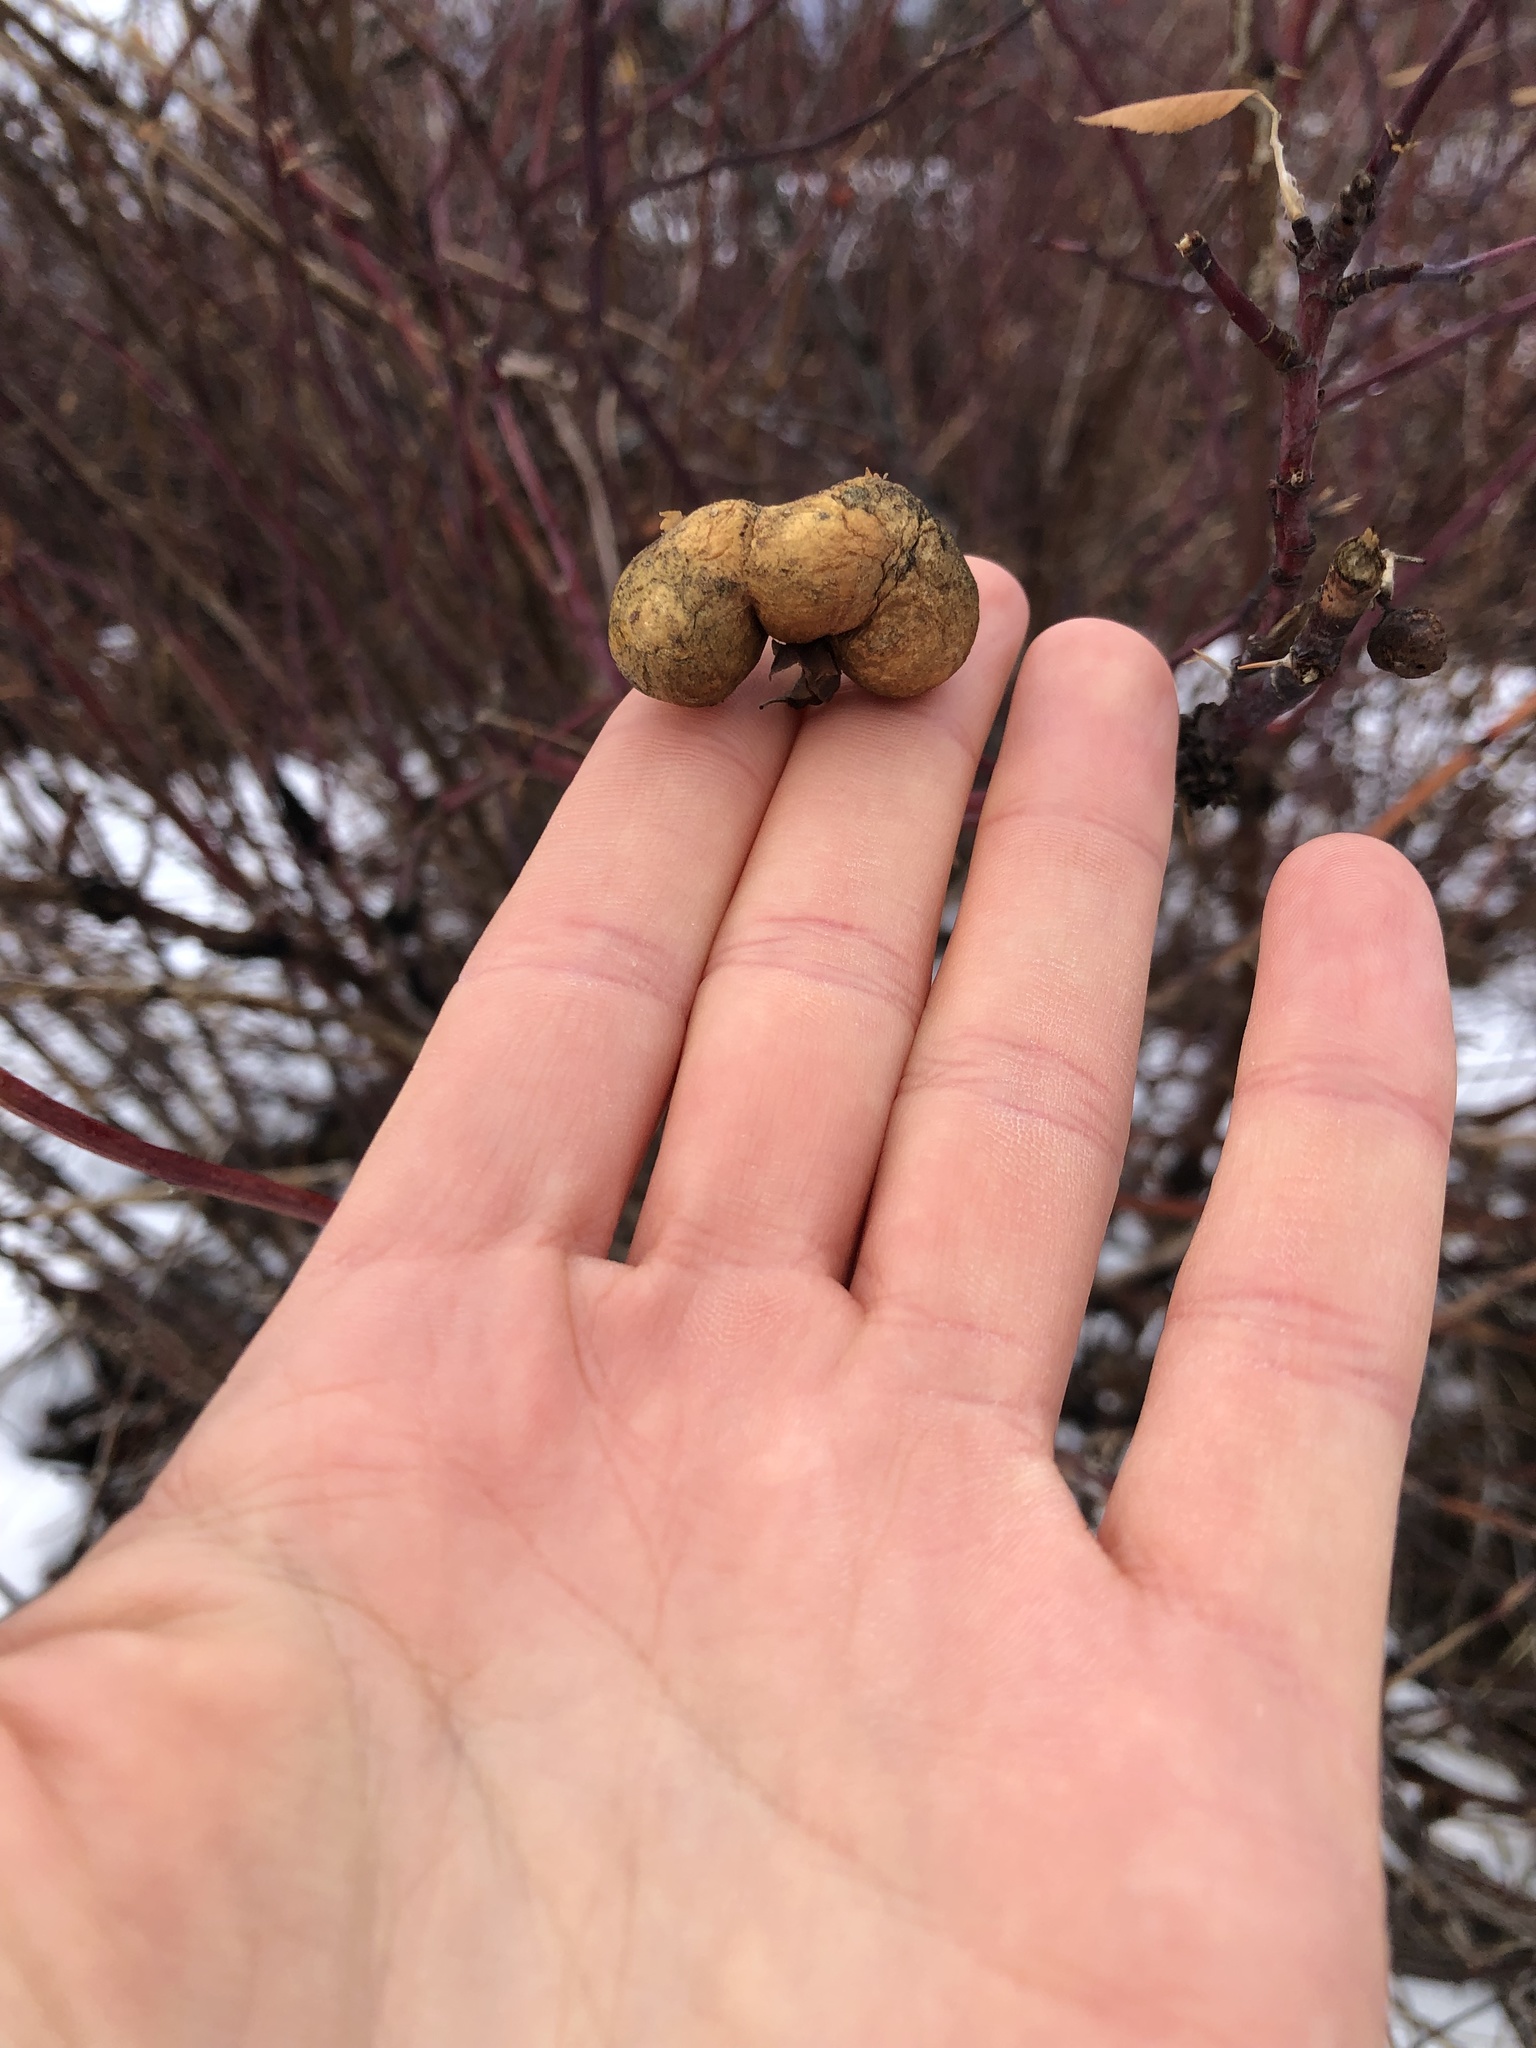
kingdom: Animalia
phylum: Arthropoda
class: Insecta
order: Hymenoptera
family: Cynipidae
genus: Diplolepis
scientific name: Diplolepis variabilis
